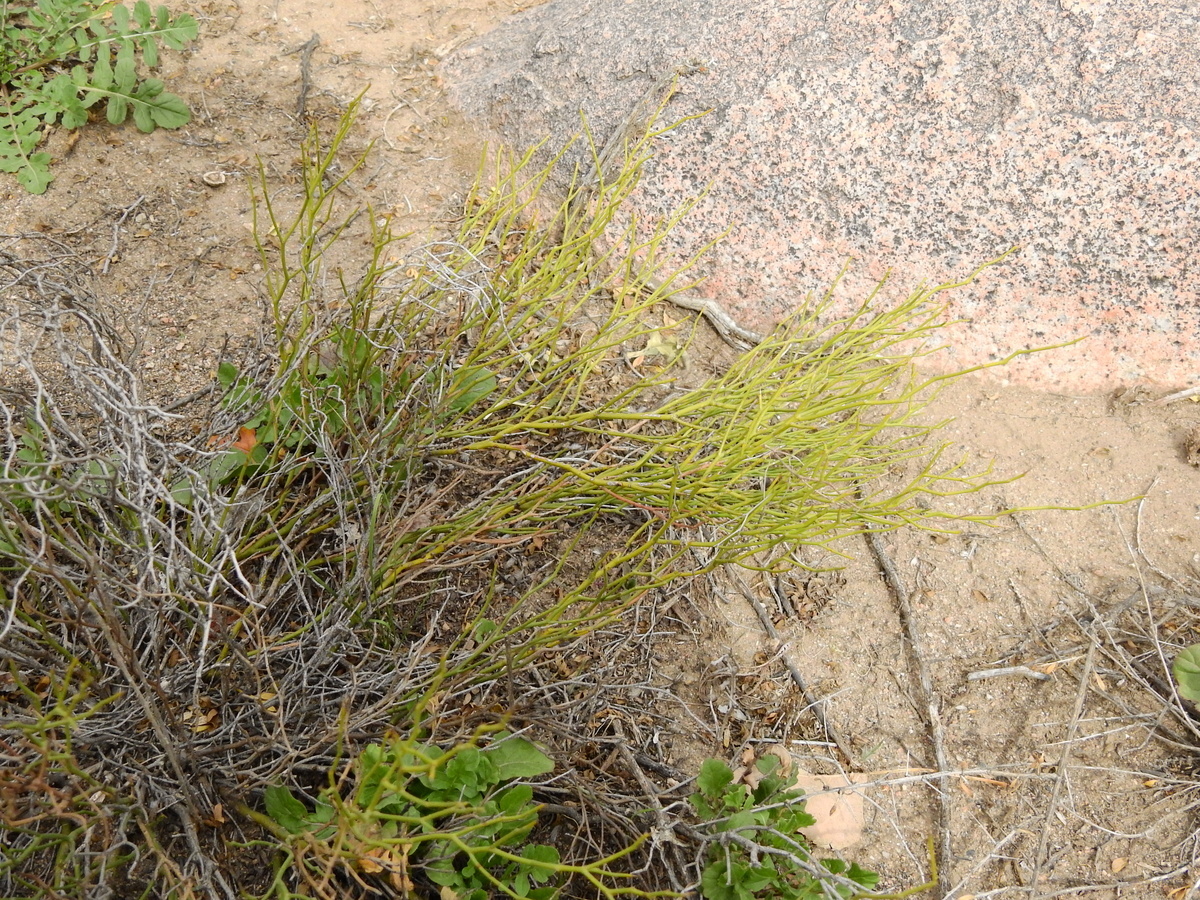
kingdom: Plantae
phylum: Tracheophyta
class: Magnoliopsida
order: Fabales
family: Fabaceae
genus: Senna
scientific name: Senna aphylla
